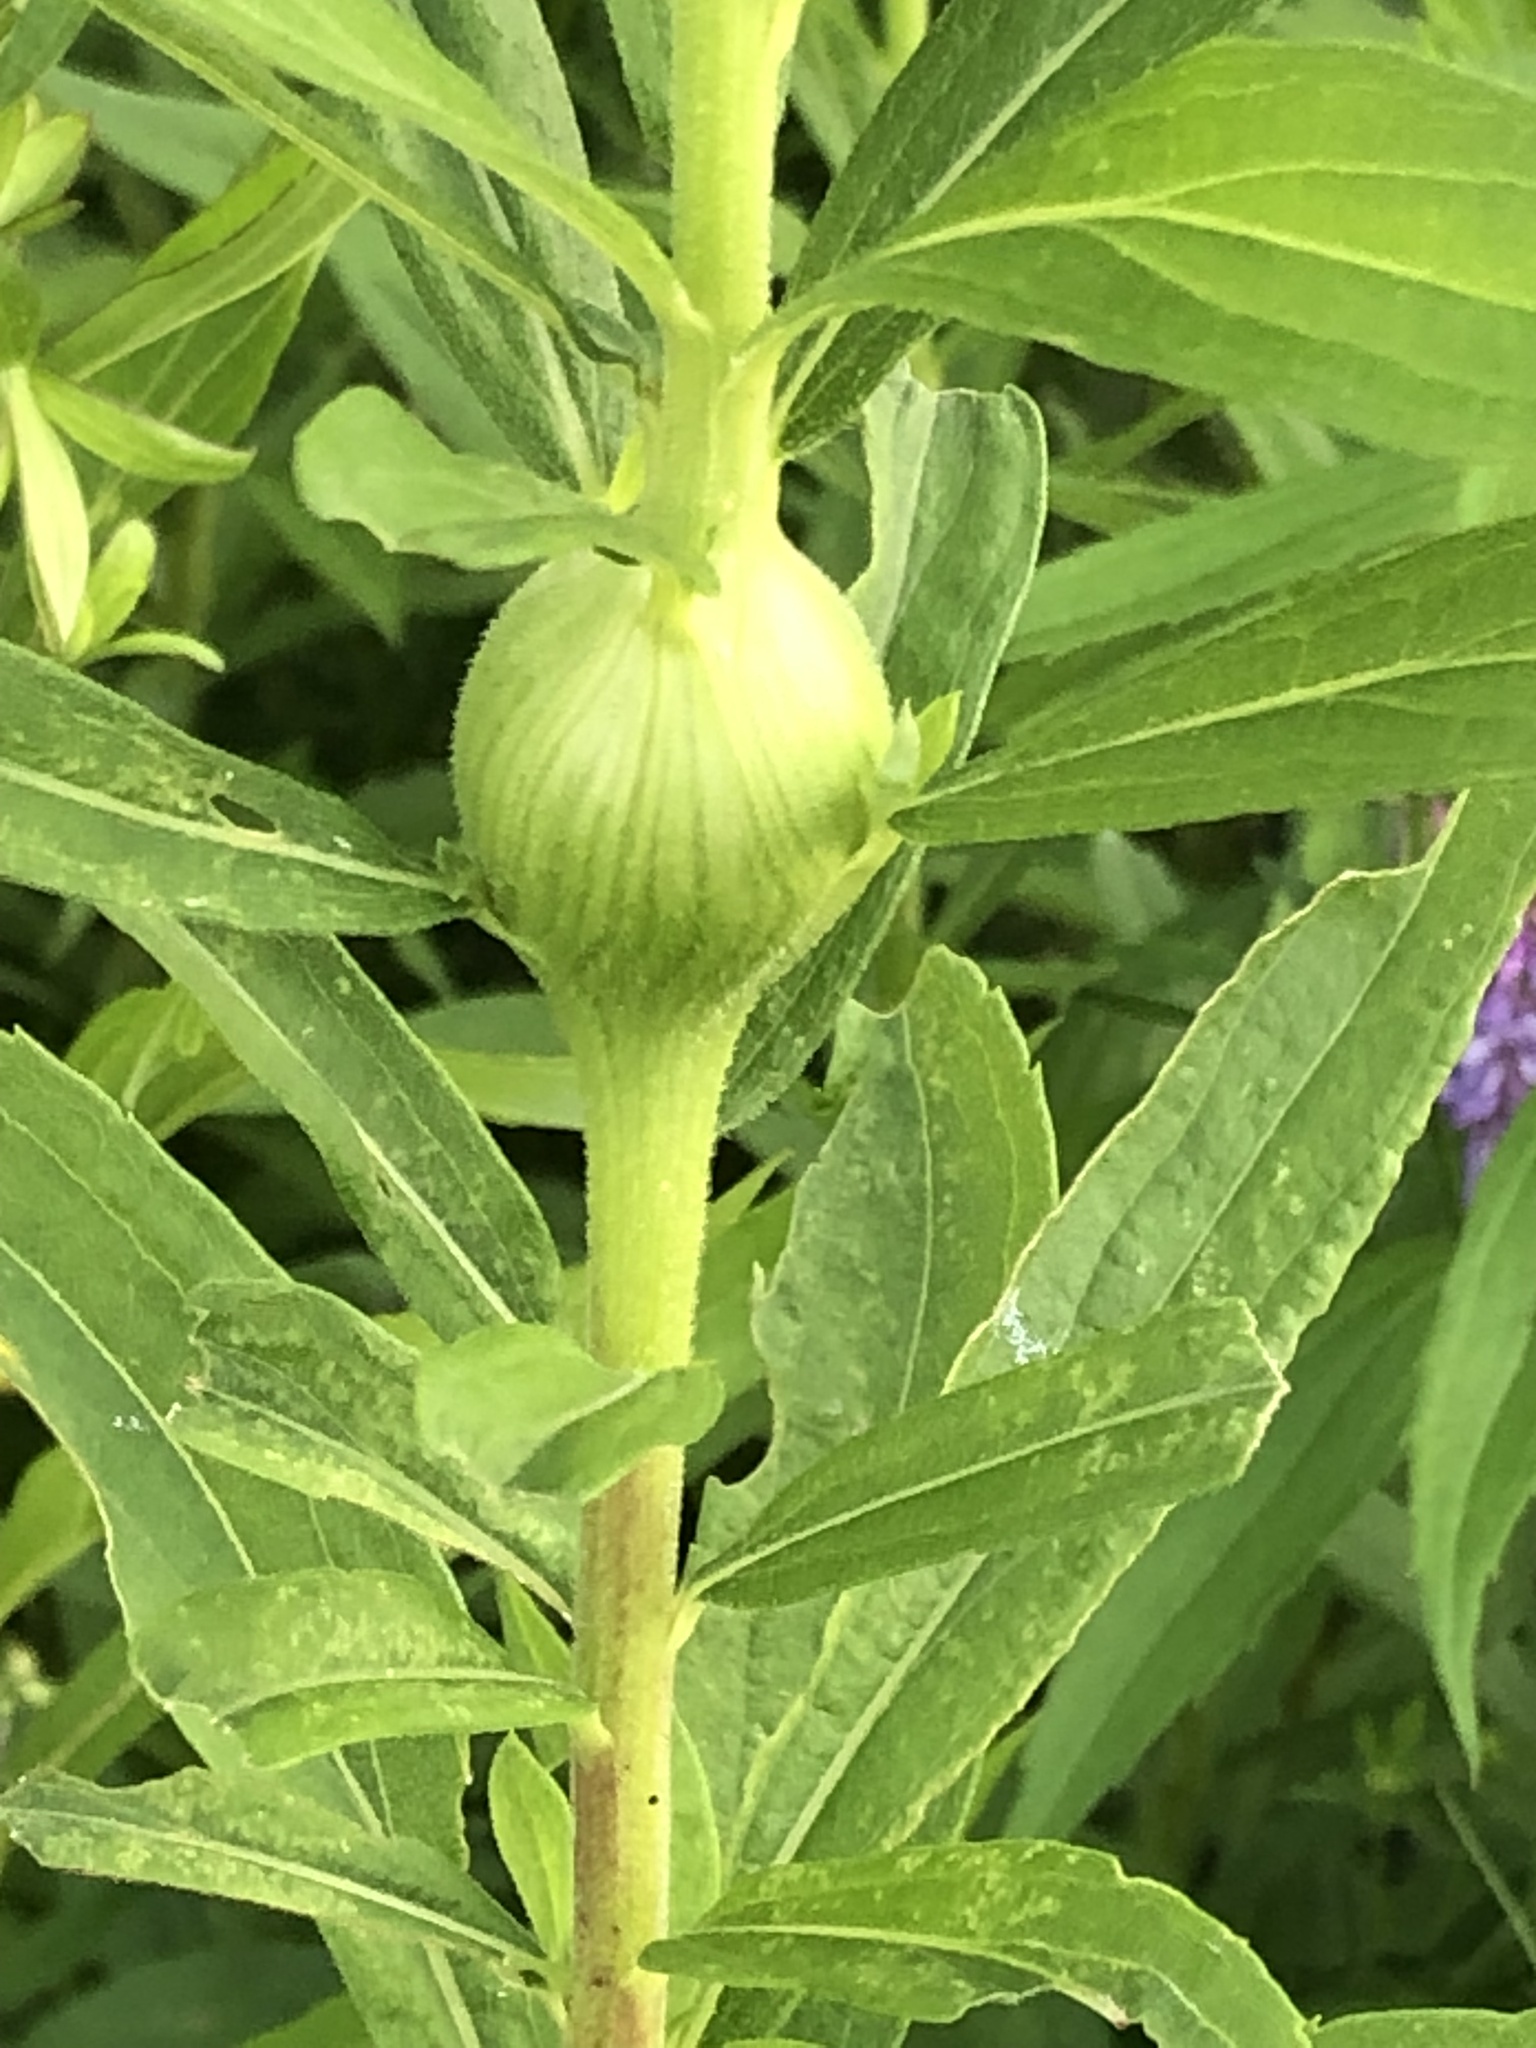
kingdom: Animalia
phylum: Arthropoda
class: Insecta
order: Diptera
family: Tephritidae
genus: Eurosta
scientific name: Eurosta solidaginis
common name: Goldenrod gall fly
